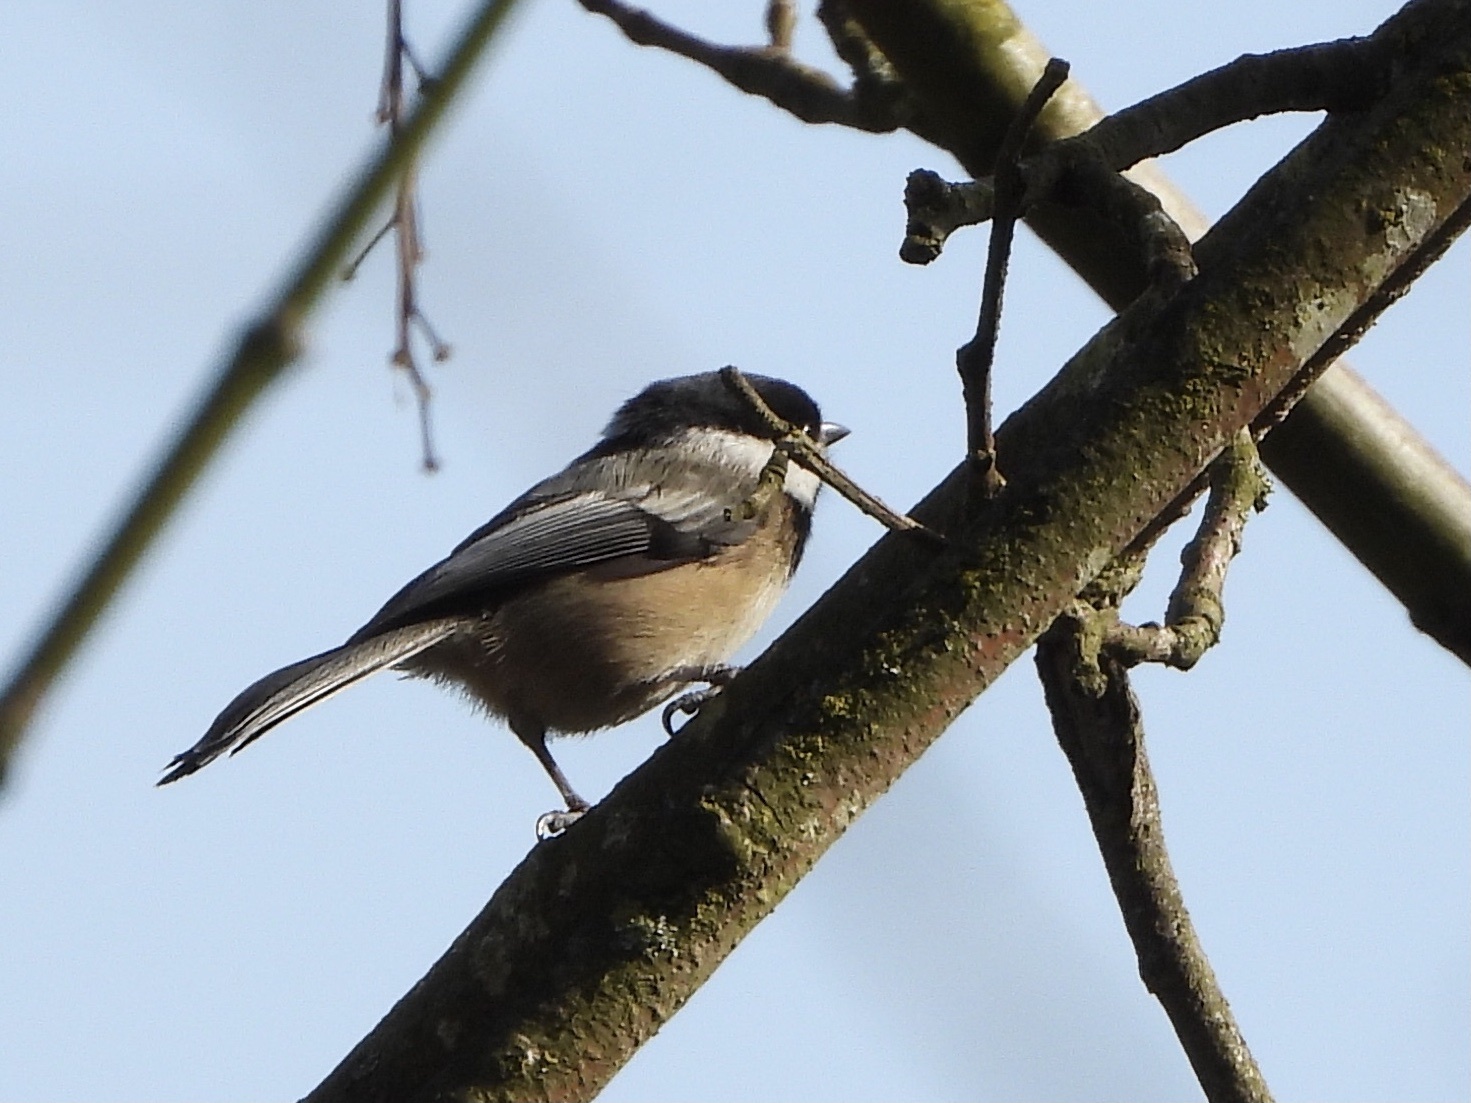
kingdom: Animalia
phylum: Chordata
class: Aves
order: Passeriformes
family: Paridae
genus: Poecile
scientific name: Poecile atricapillus
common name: Black-capped chickadee
